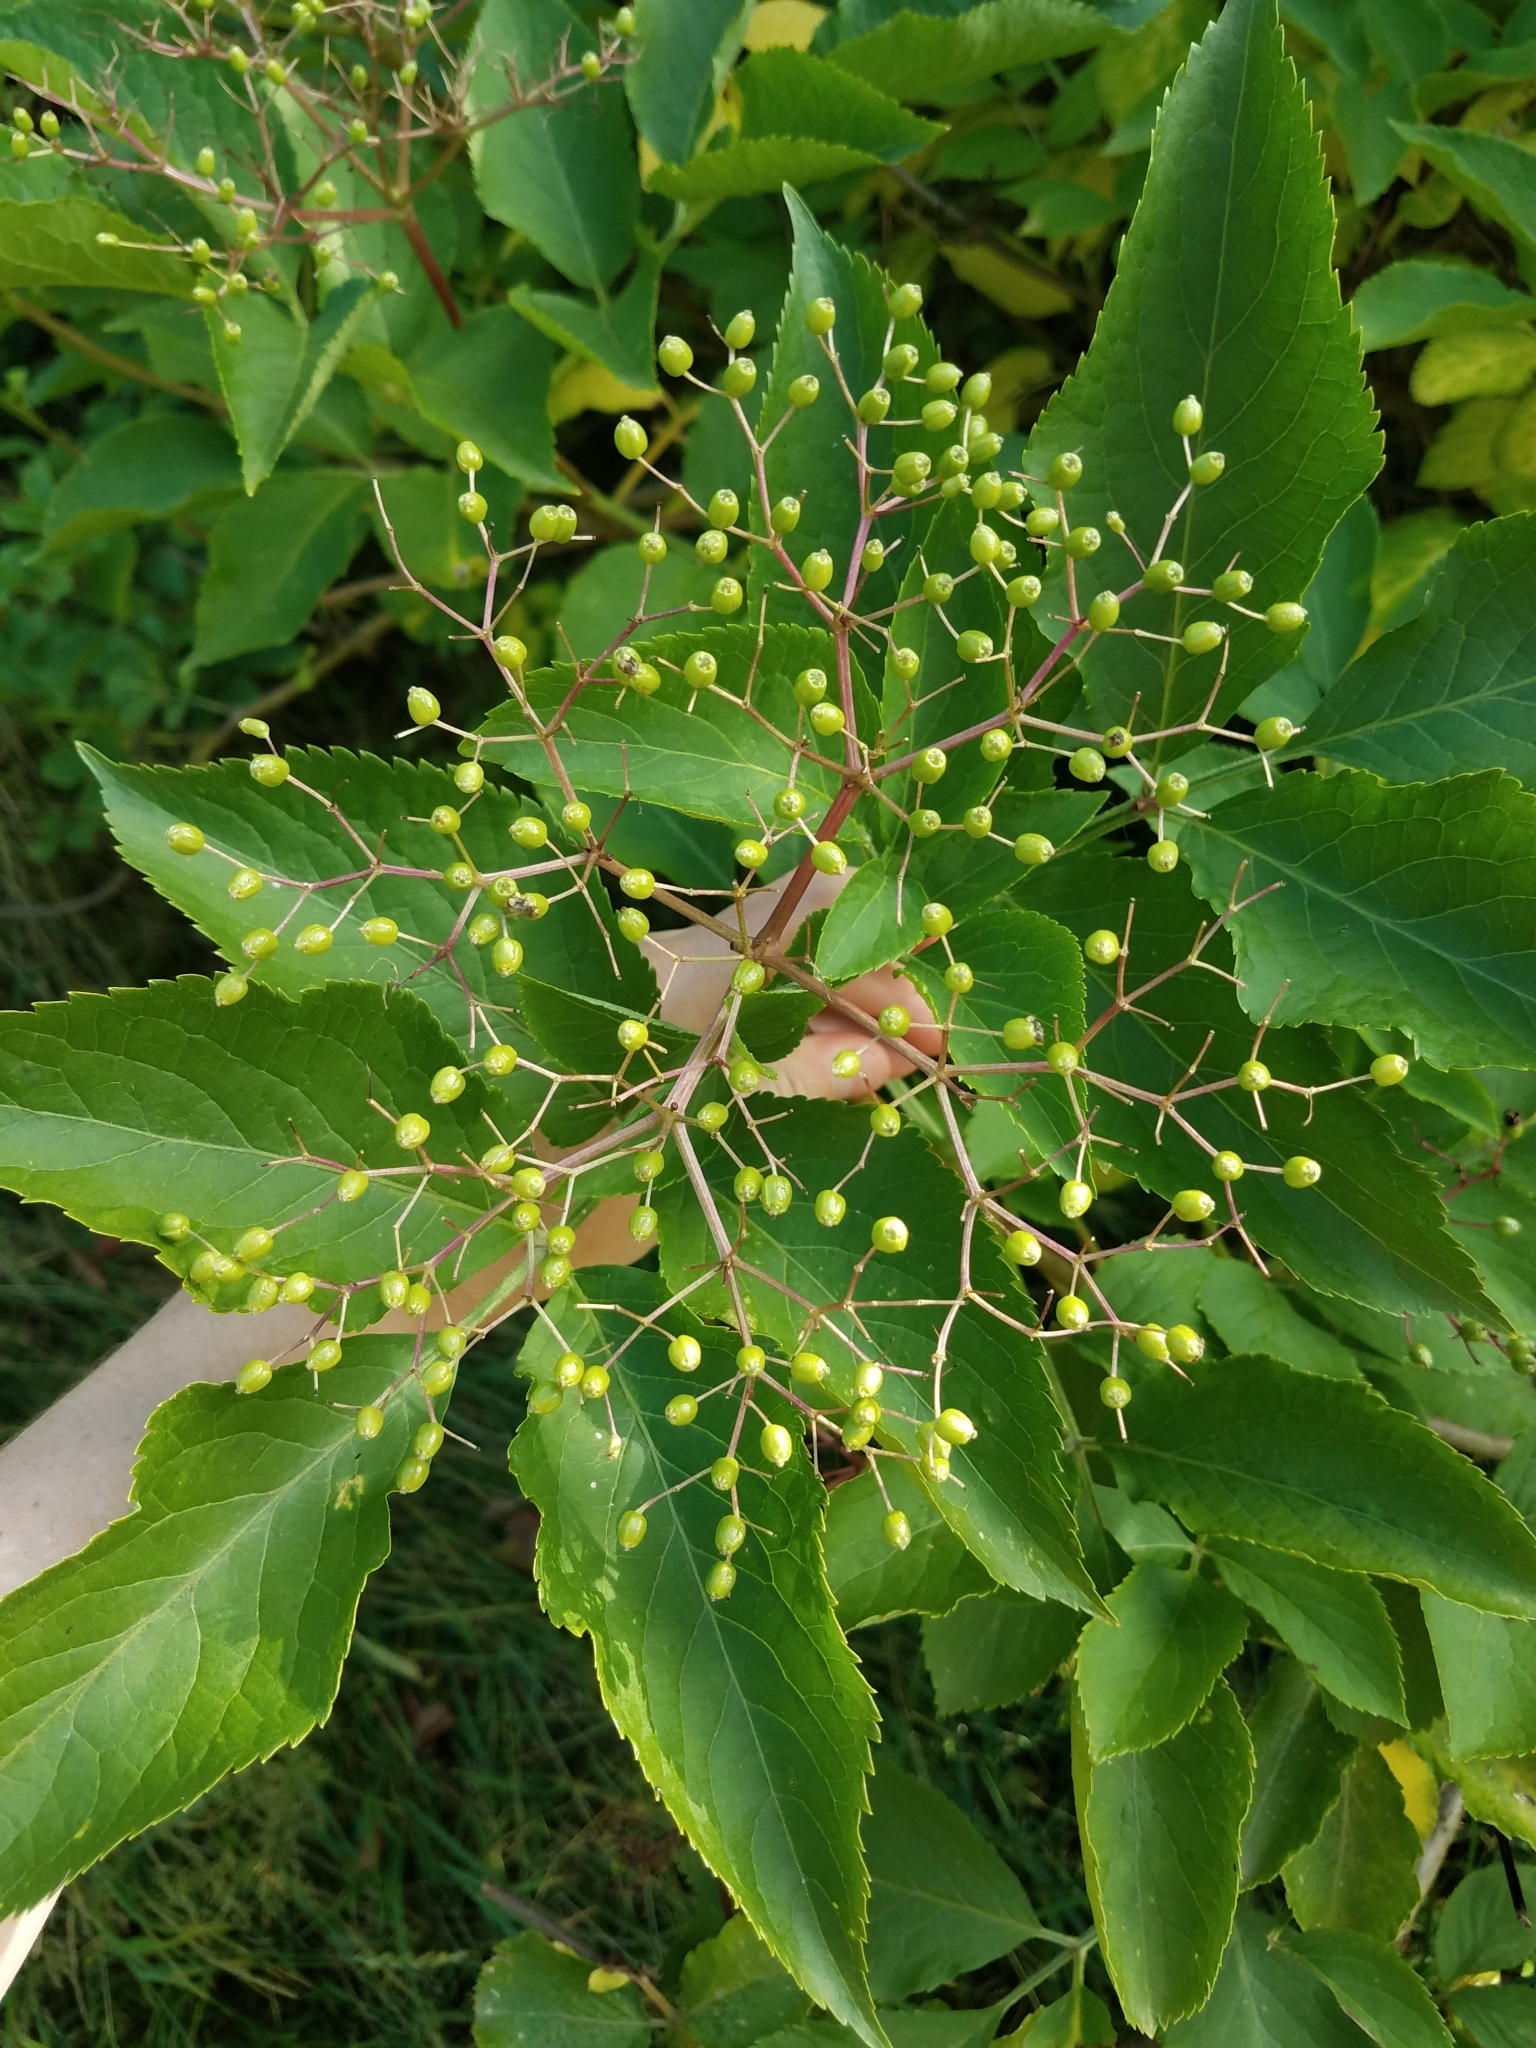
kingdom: Plantae
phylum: Tracheophyta
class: Magnoliopsida
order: Dipsacales
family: Viburnaceae
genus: Sambucus
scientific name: Sambucus nigra
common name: Elder
